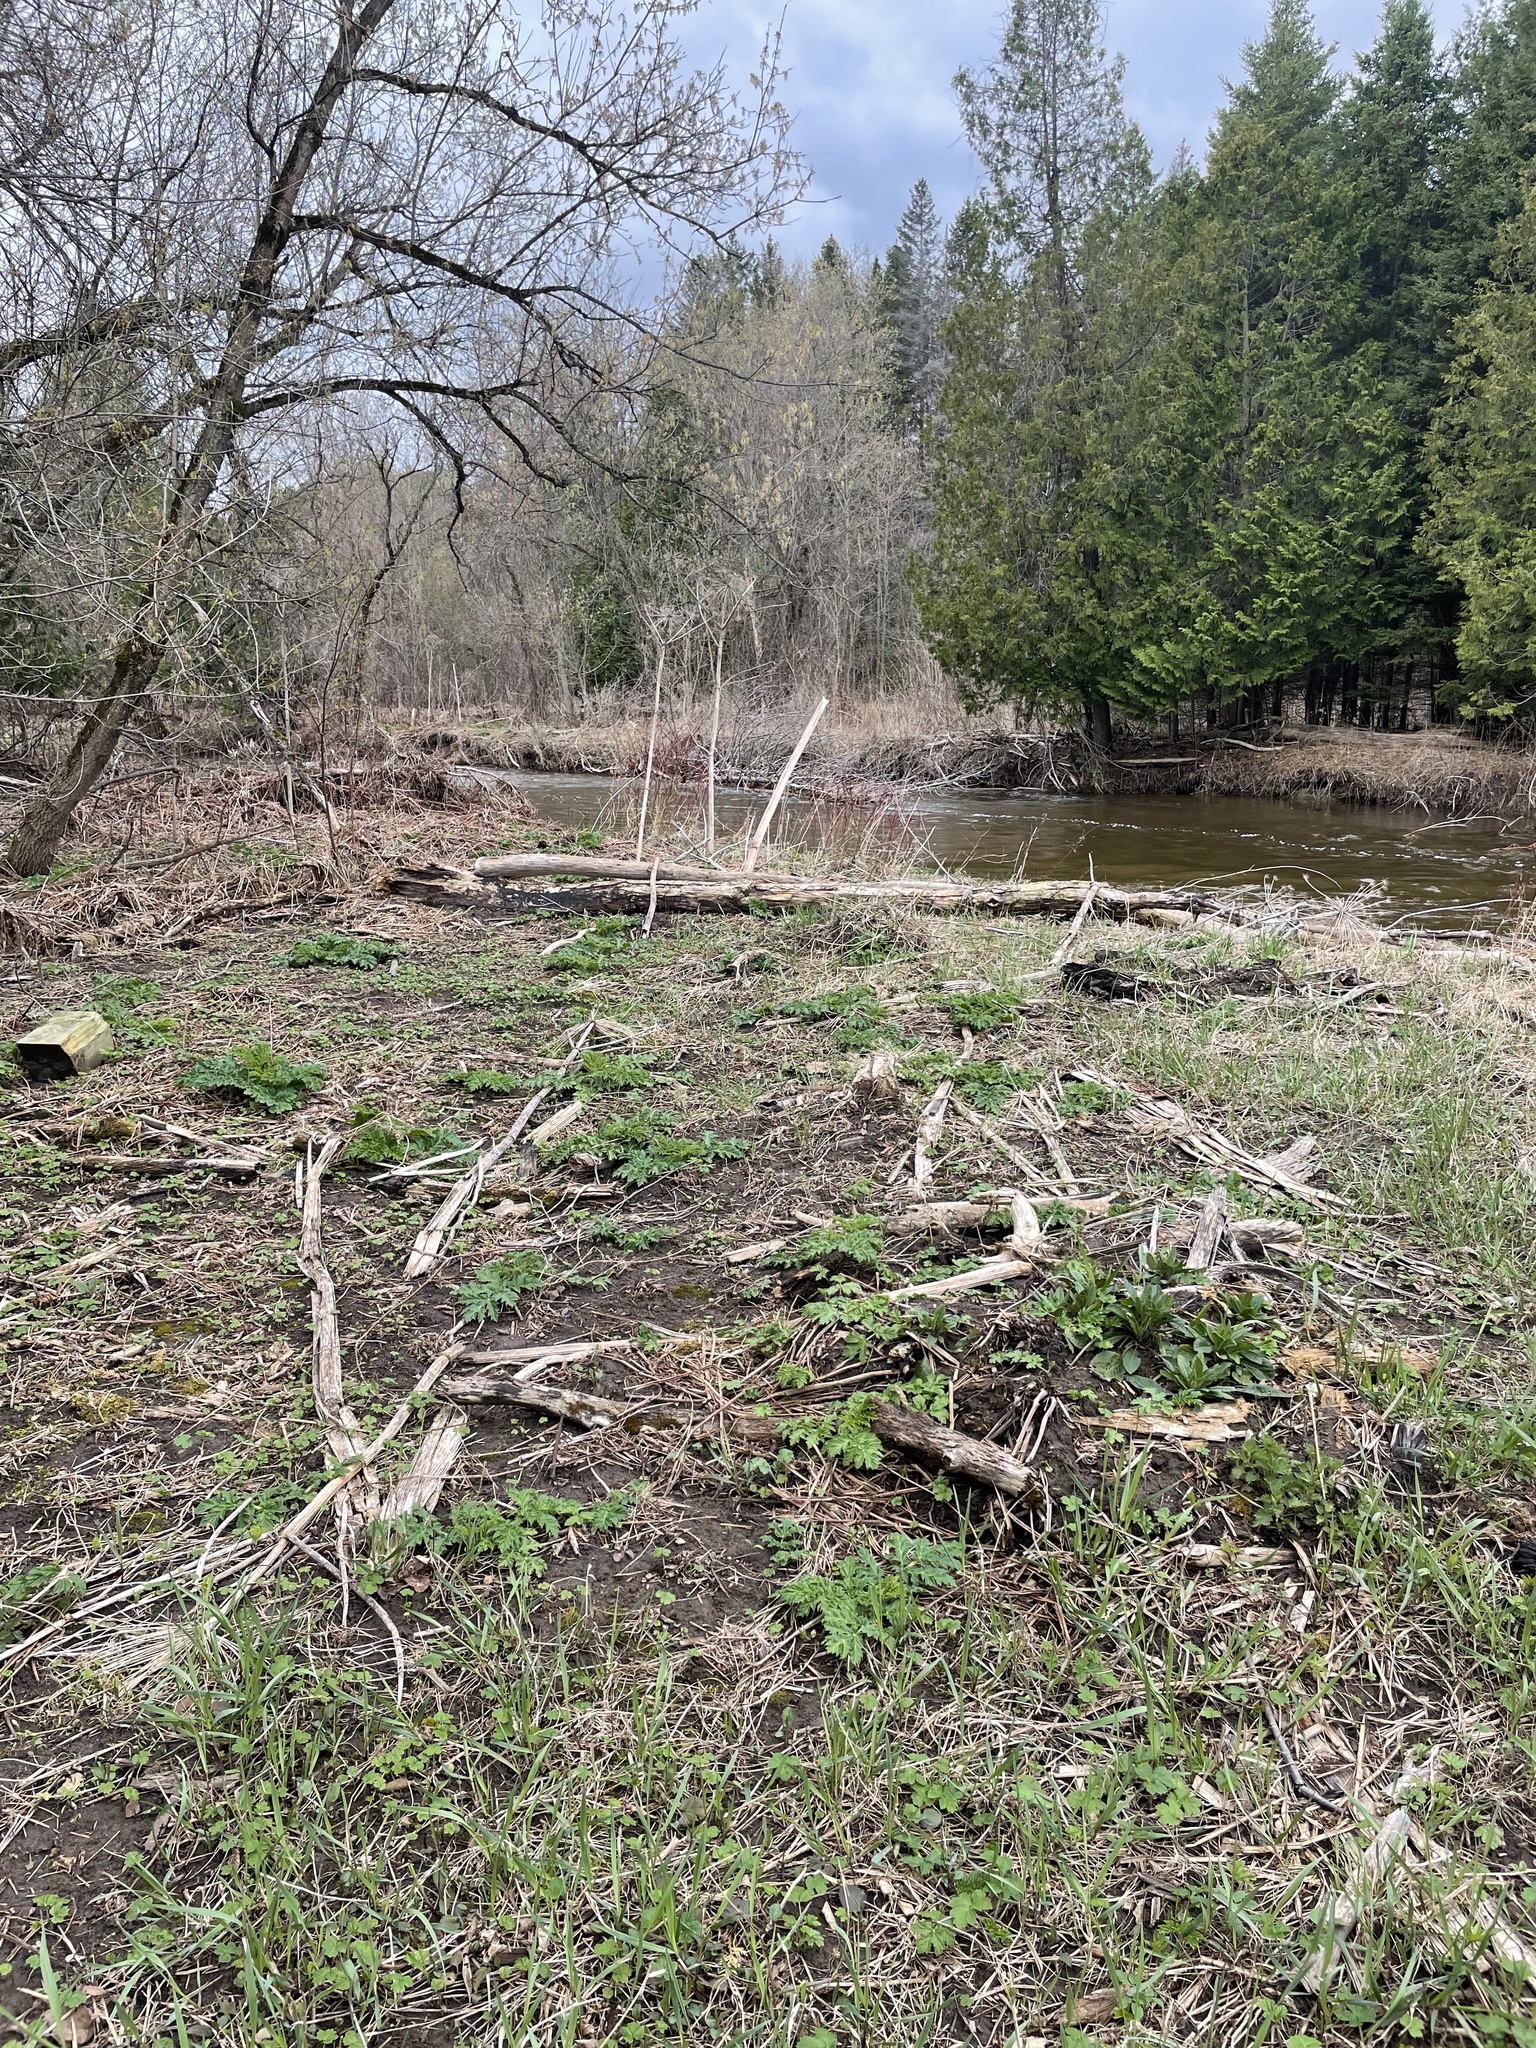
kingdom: Plantae
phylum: Tracheophyta
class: Magnoliopsida
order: Apiales
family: Apiaceae
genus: Heracleum
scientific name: Heracleum mantegazzianum
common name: Giant hogweed
